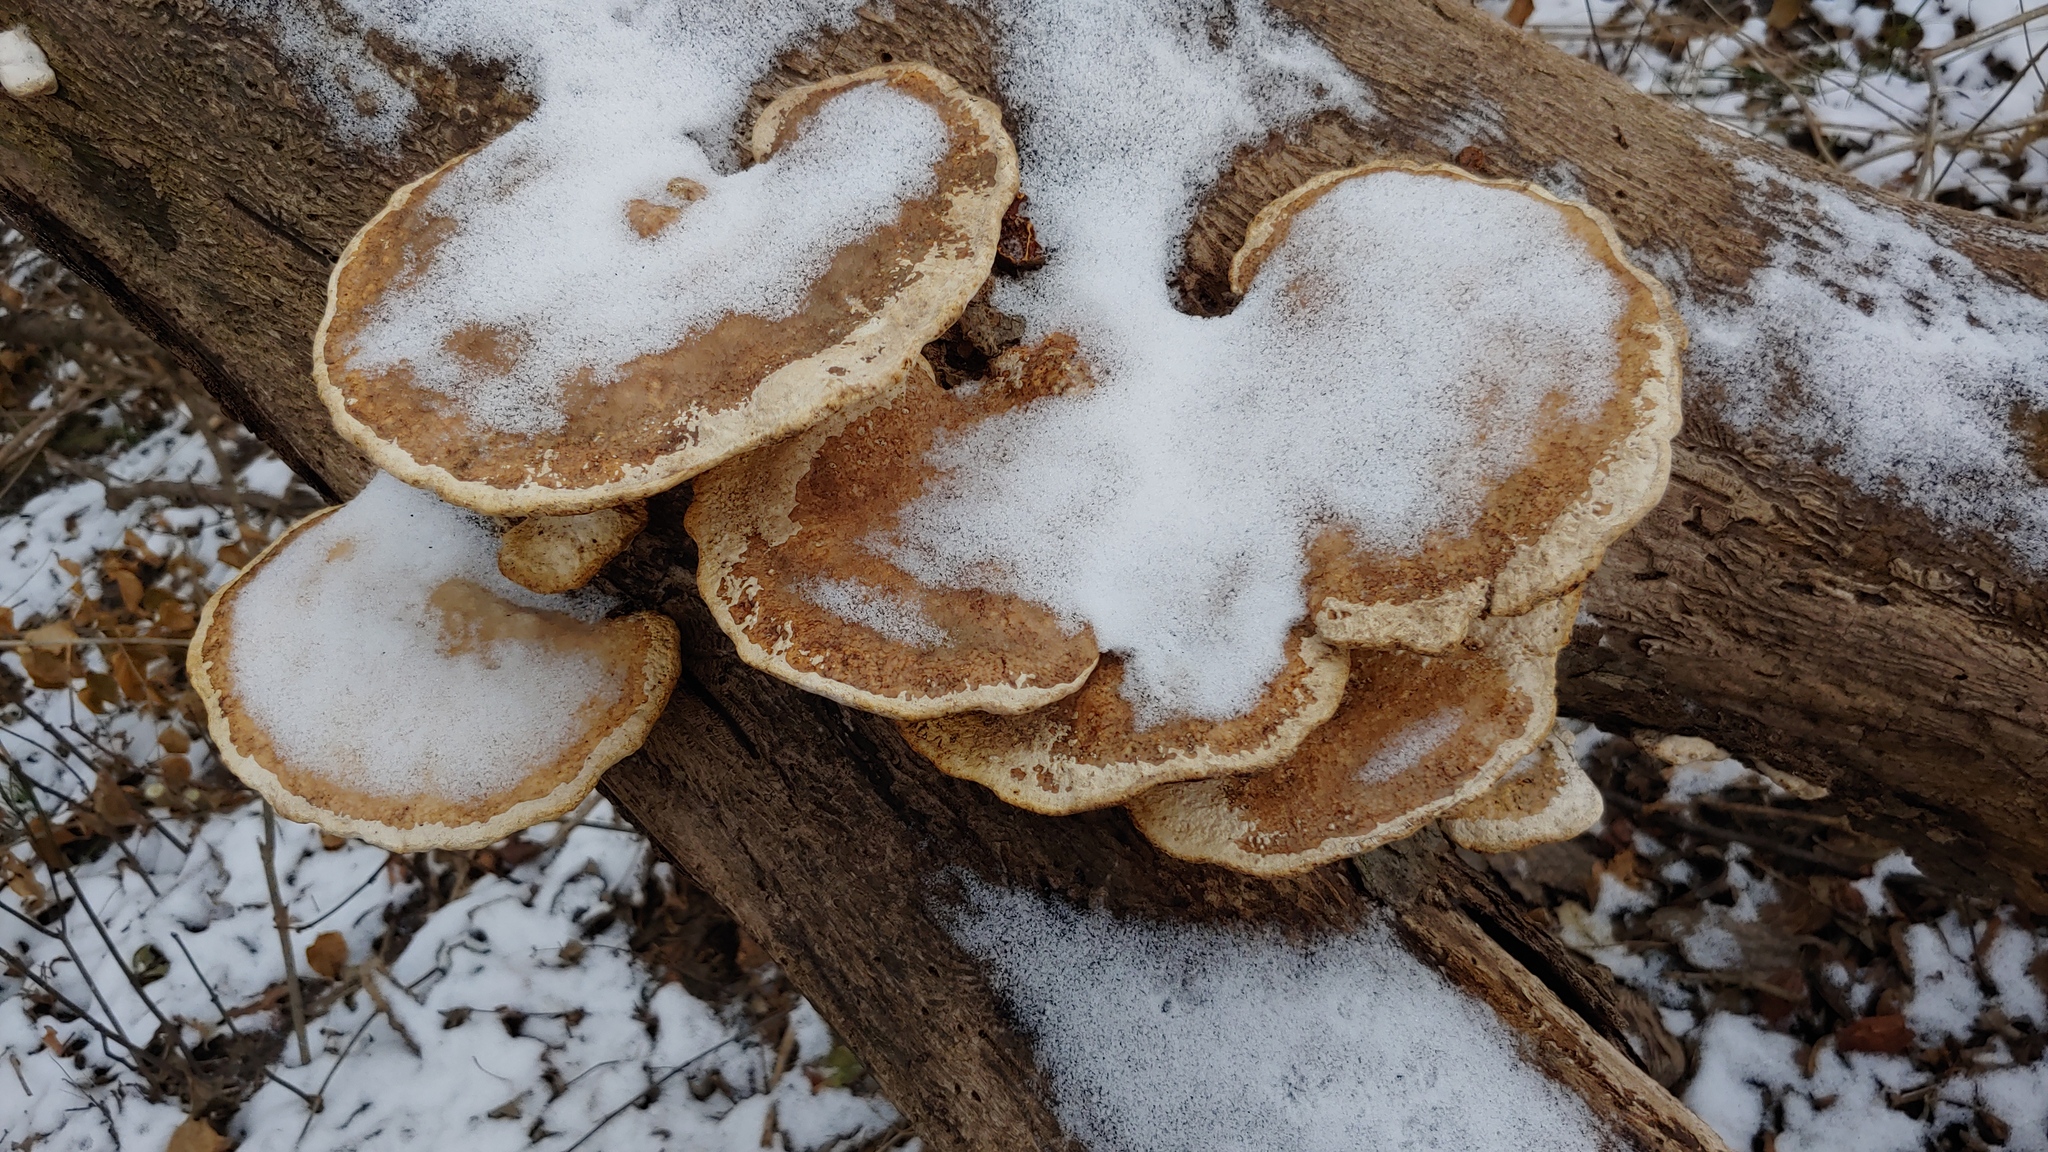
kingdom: Fungi
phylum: Basidiomycota
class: Agaricomycetes
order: Polyporales
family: Polyporaceae
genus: Trametes
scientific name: Trametes
